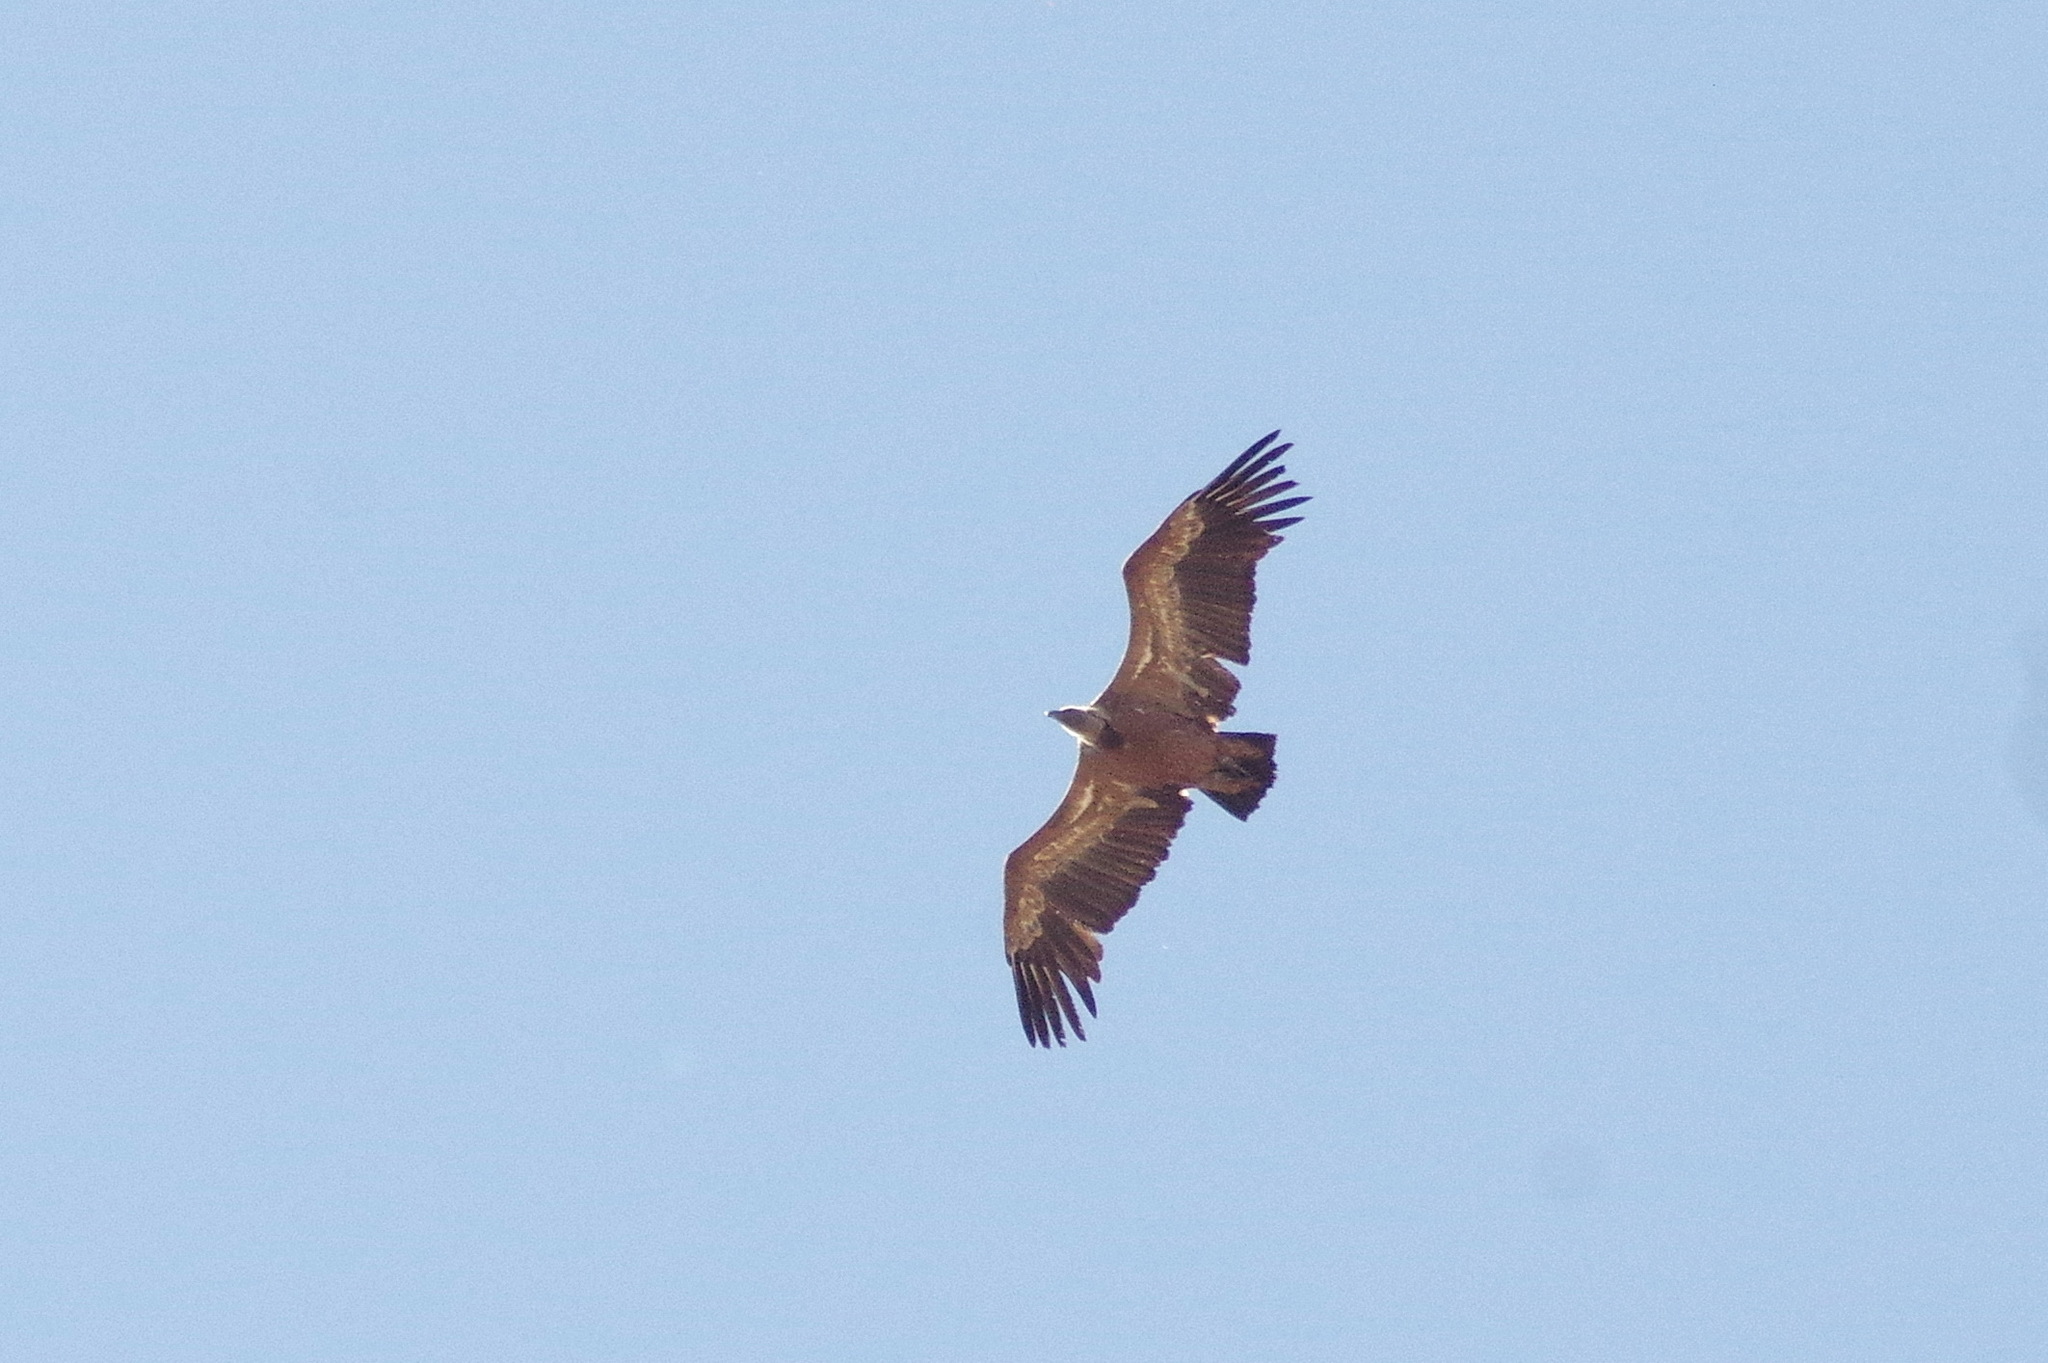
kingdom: Animalia
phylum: Chordata
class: Aves
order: Accipitriformes
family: Accipitridae
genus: Gyps
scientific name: Gyps fulvus
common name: Griffon vulture
